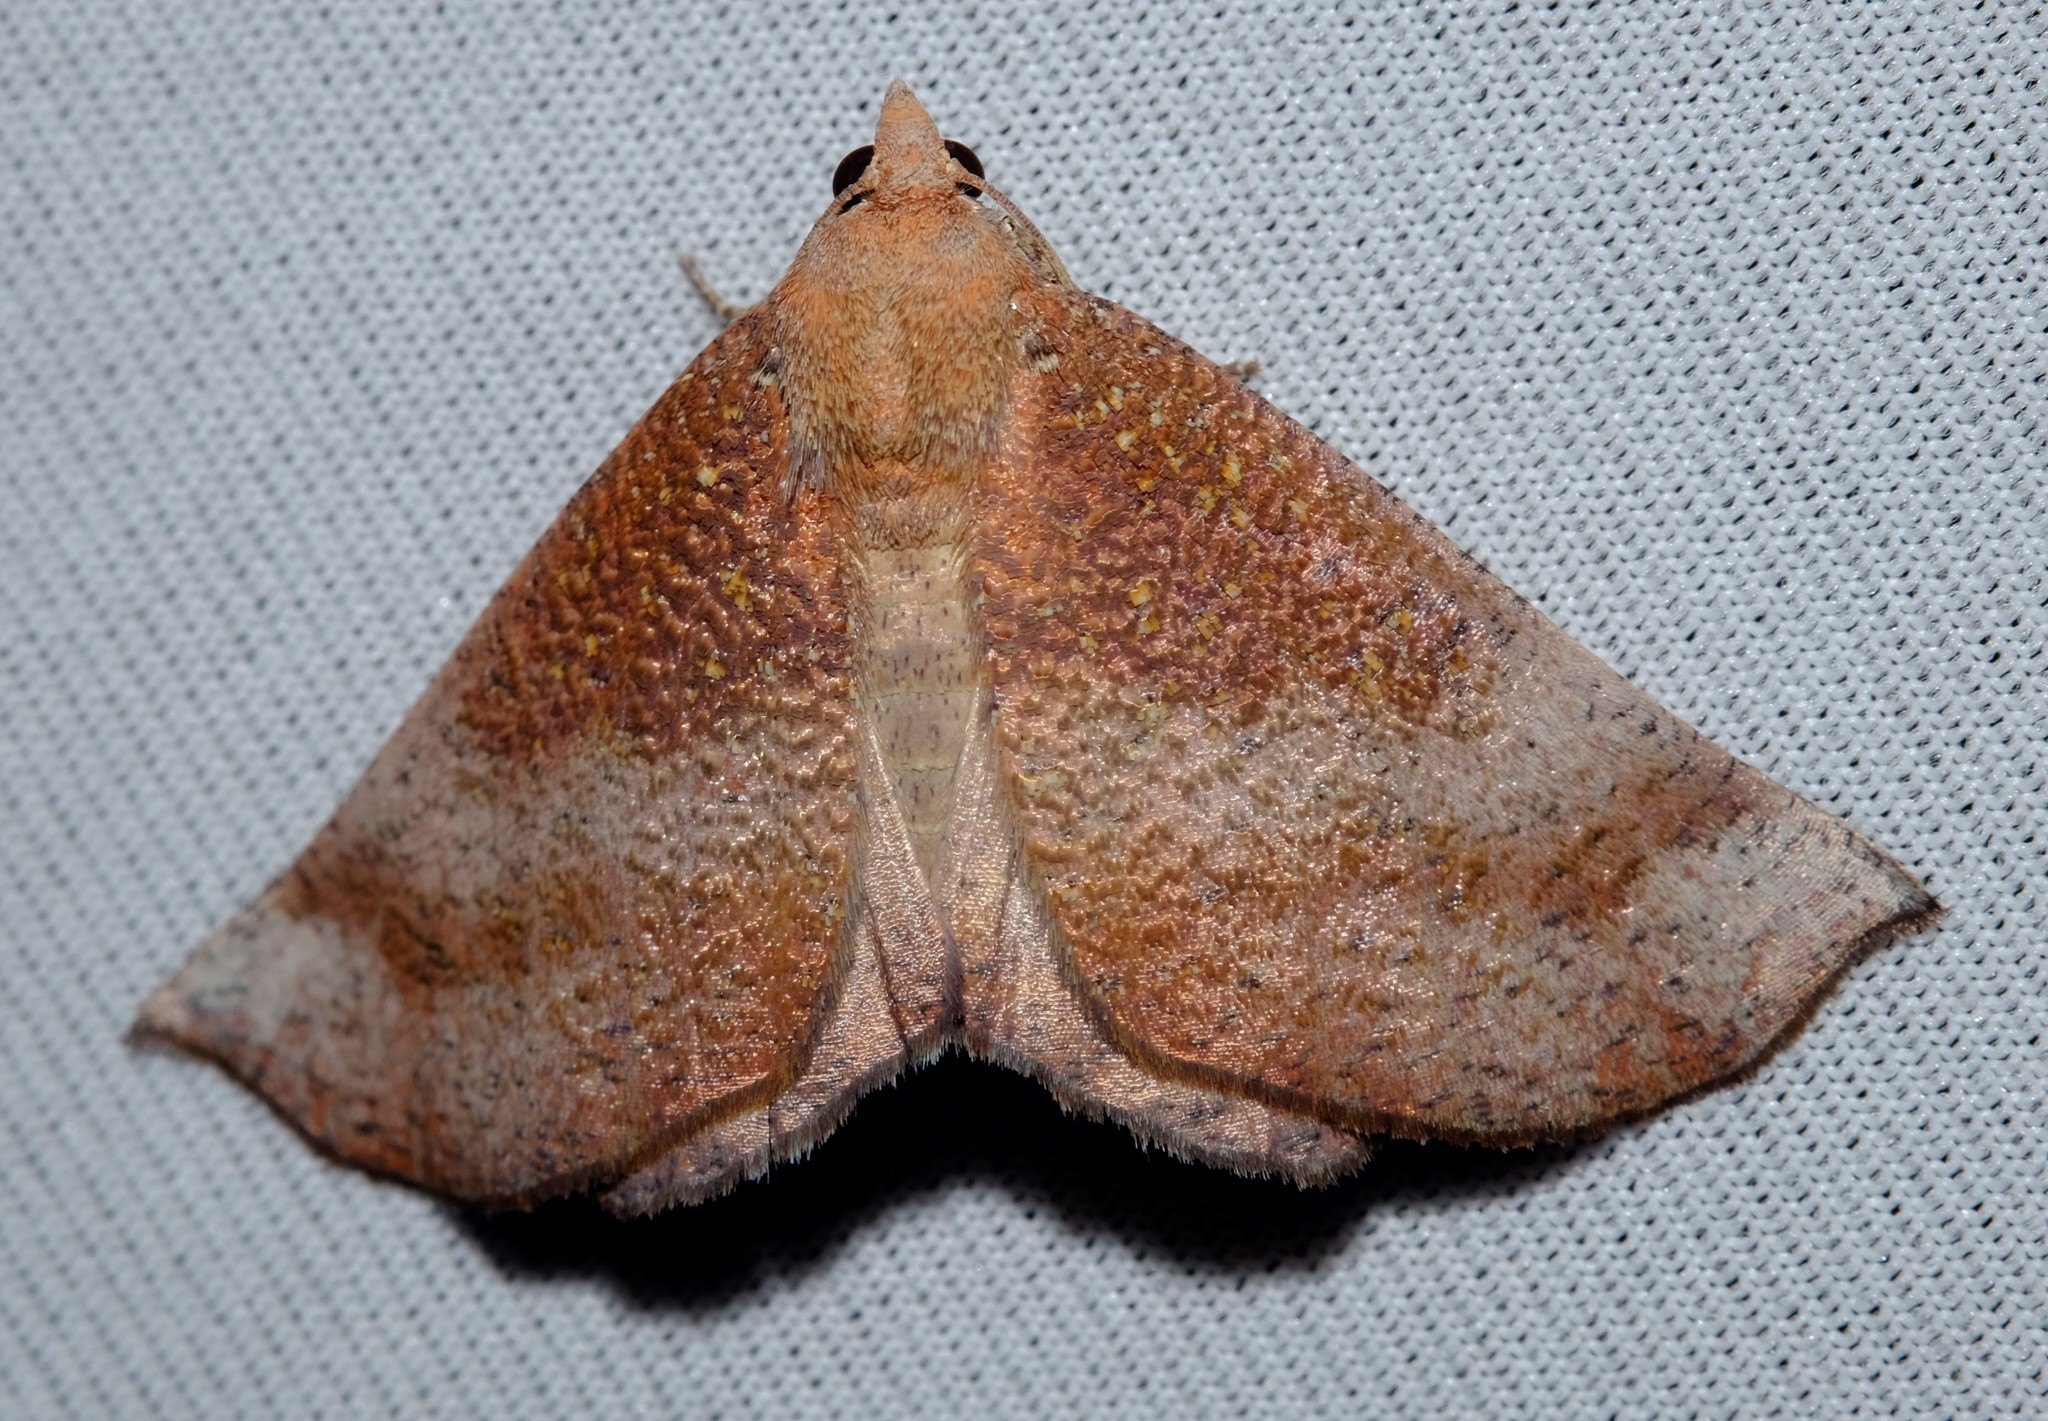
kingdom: Animalia
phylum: Arthropoda
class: Insecta
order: Lepidoptera
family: Geometridae
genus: Mnesampela
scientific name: Mnesampela privata
